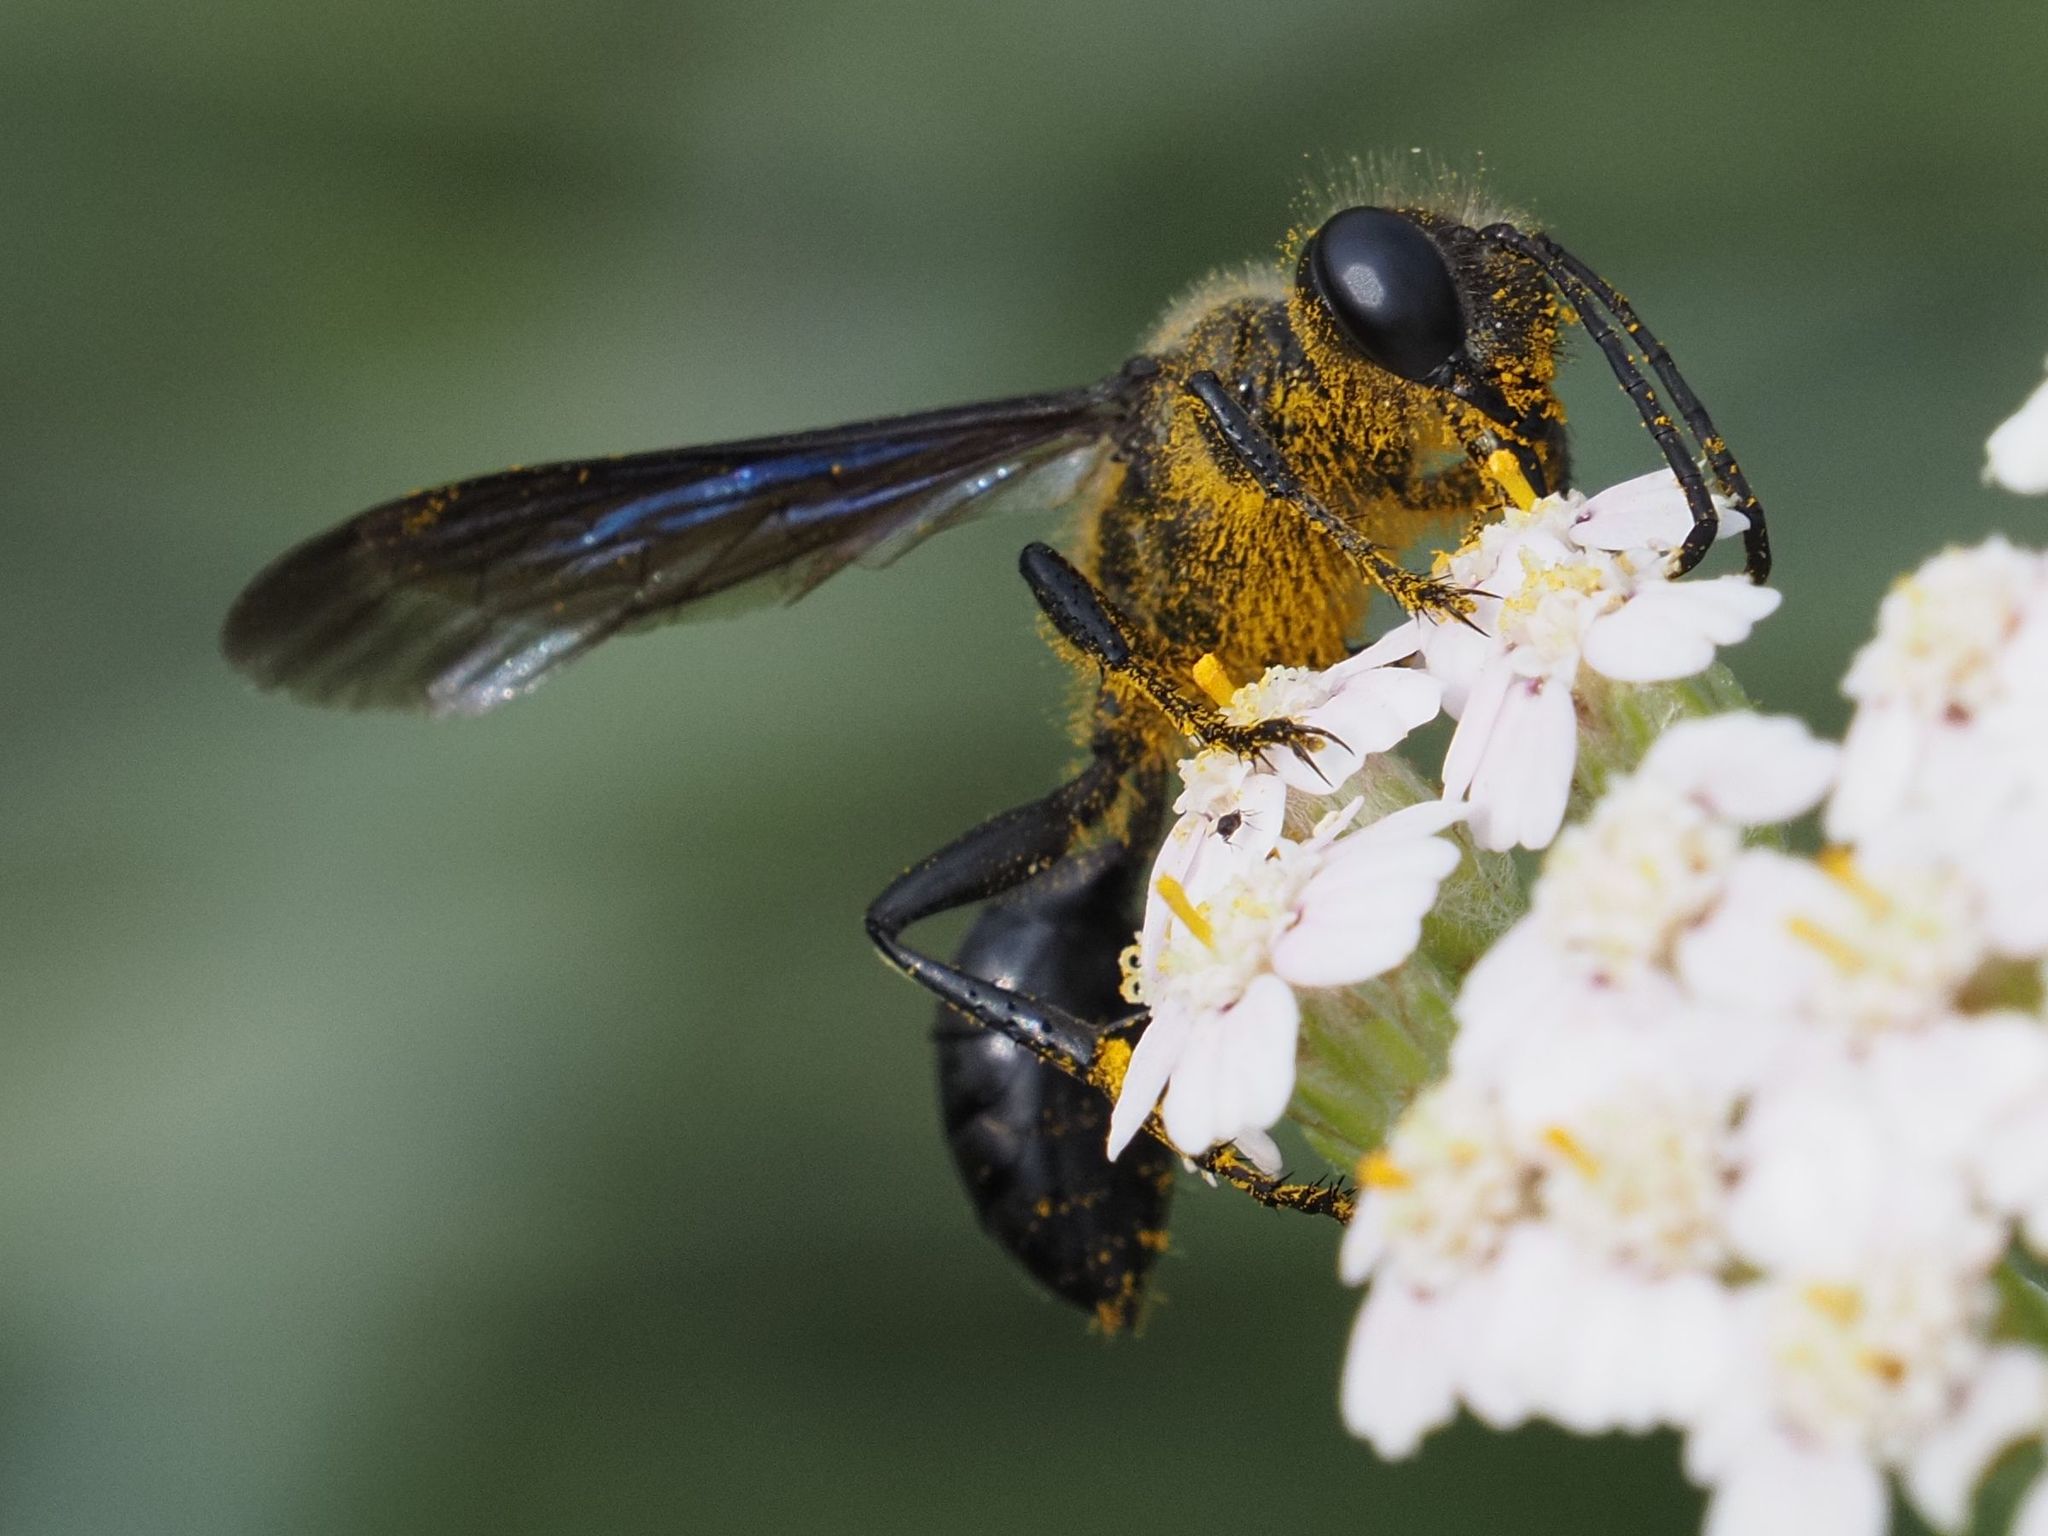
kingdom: Animalia
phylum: Arthropoda
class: Insecta
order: Hymenoptera
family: Sphecidae
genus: Isodontia
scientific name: Isodontia mexicana
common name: Mud dauber
